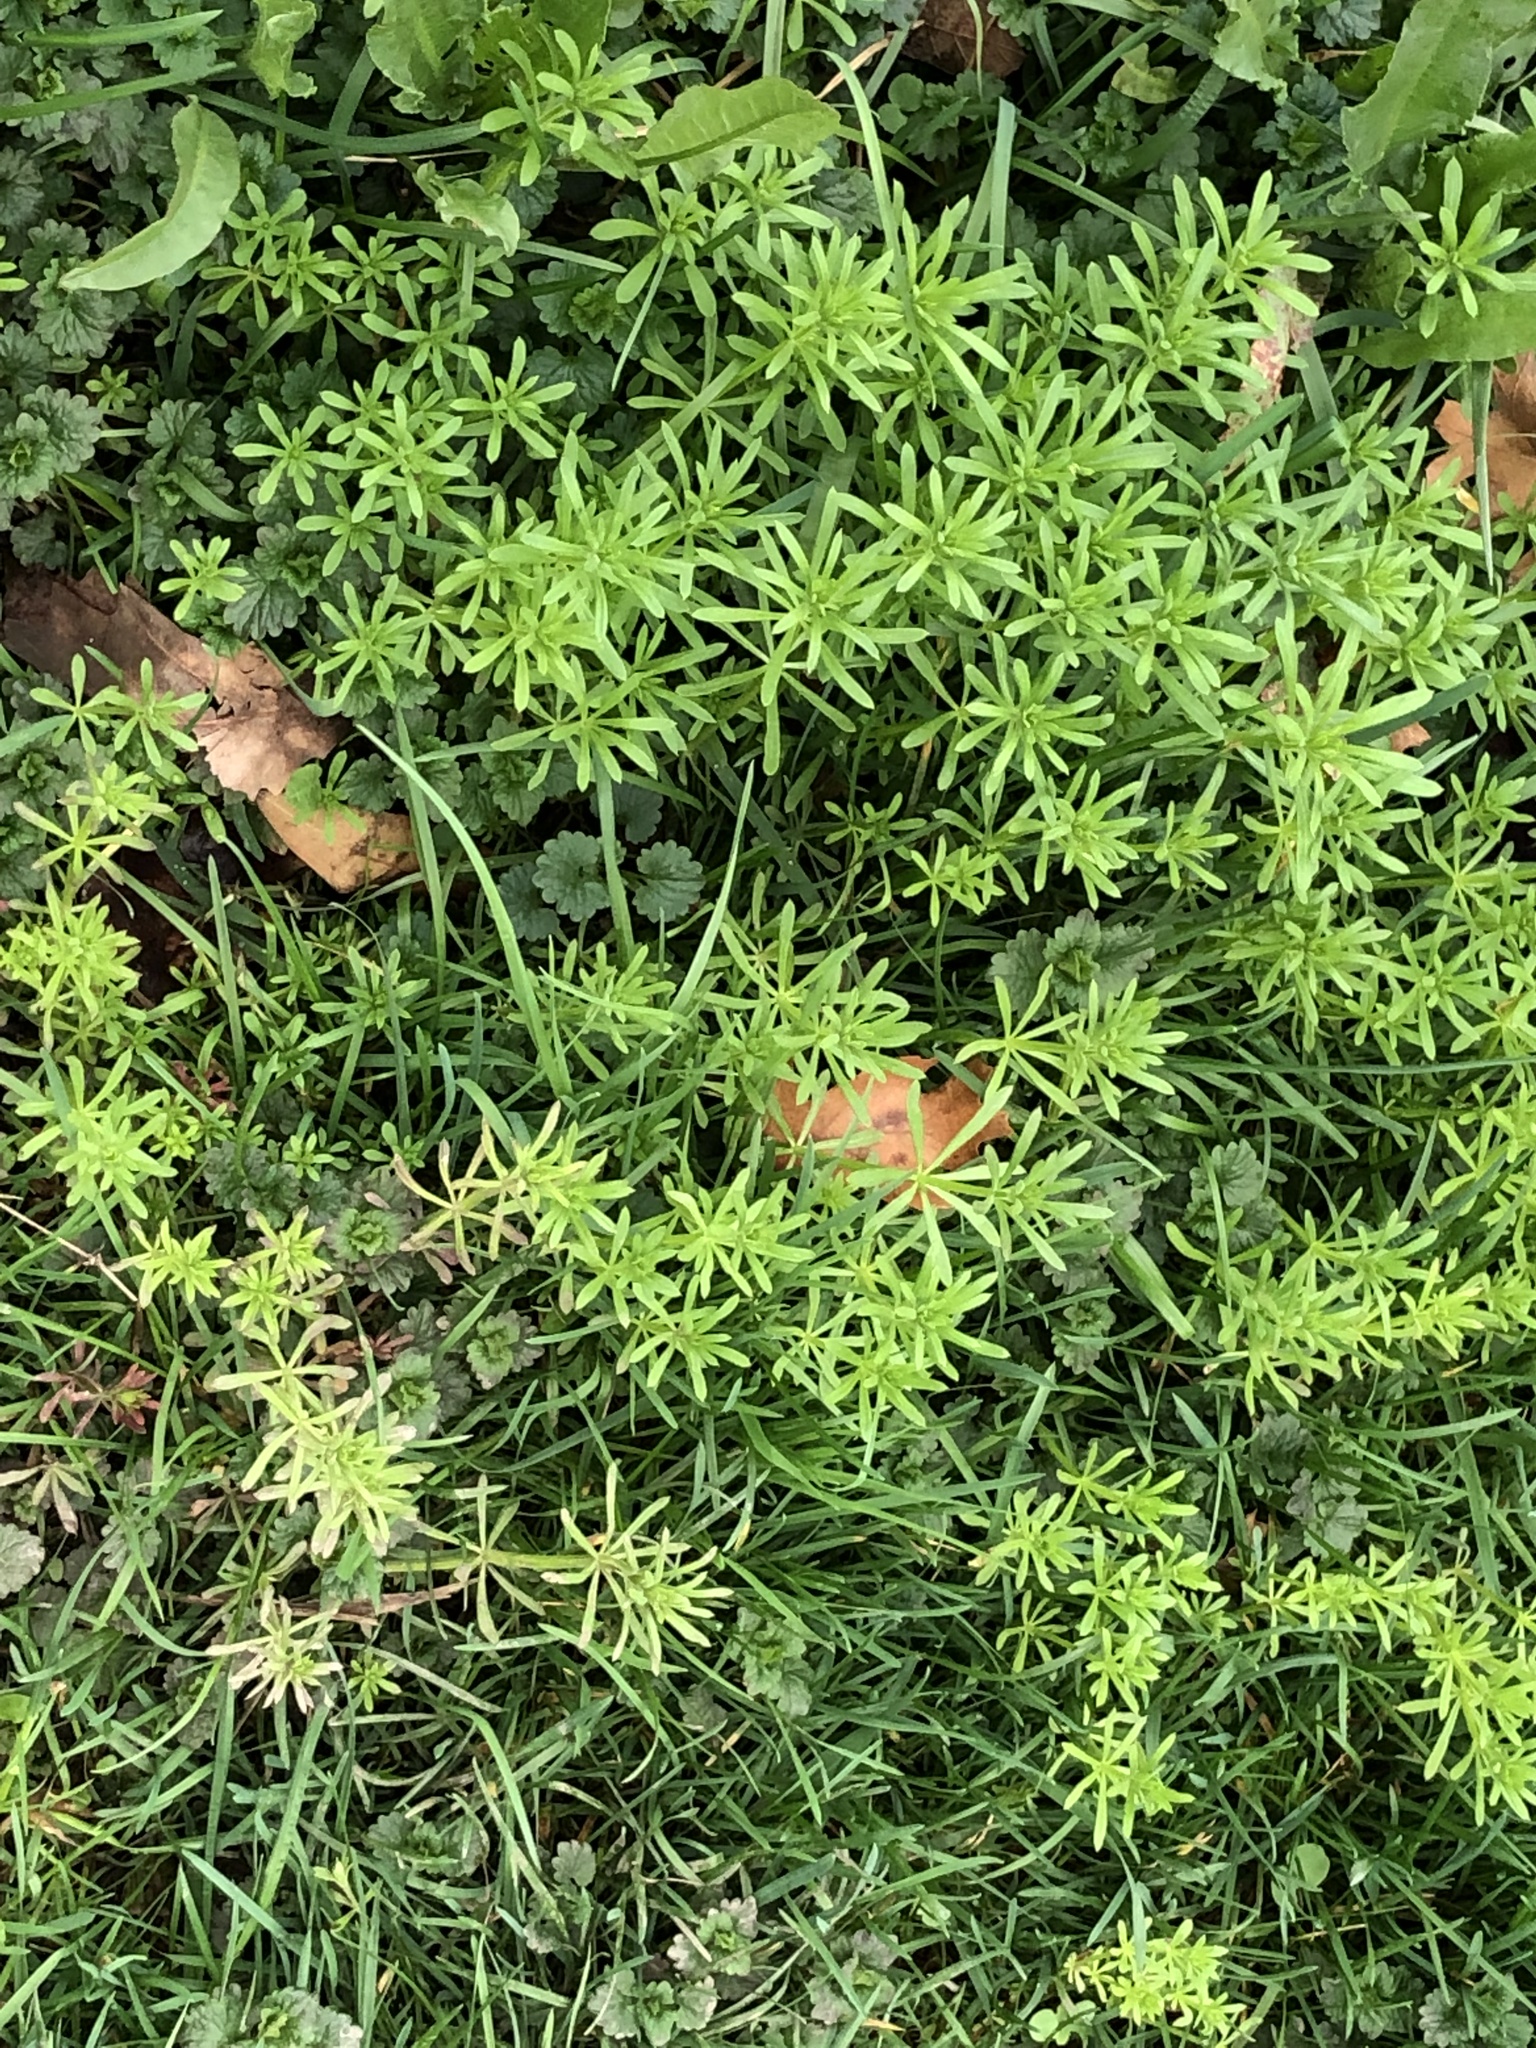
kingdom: Plantae
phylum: Tracheophyta
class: Magnoliopsida
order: Gentianales
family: Rubiaceae
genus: Galium
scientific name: Galium aparine
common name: Cleavers
